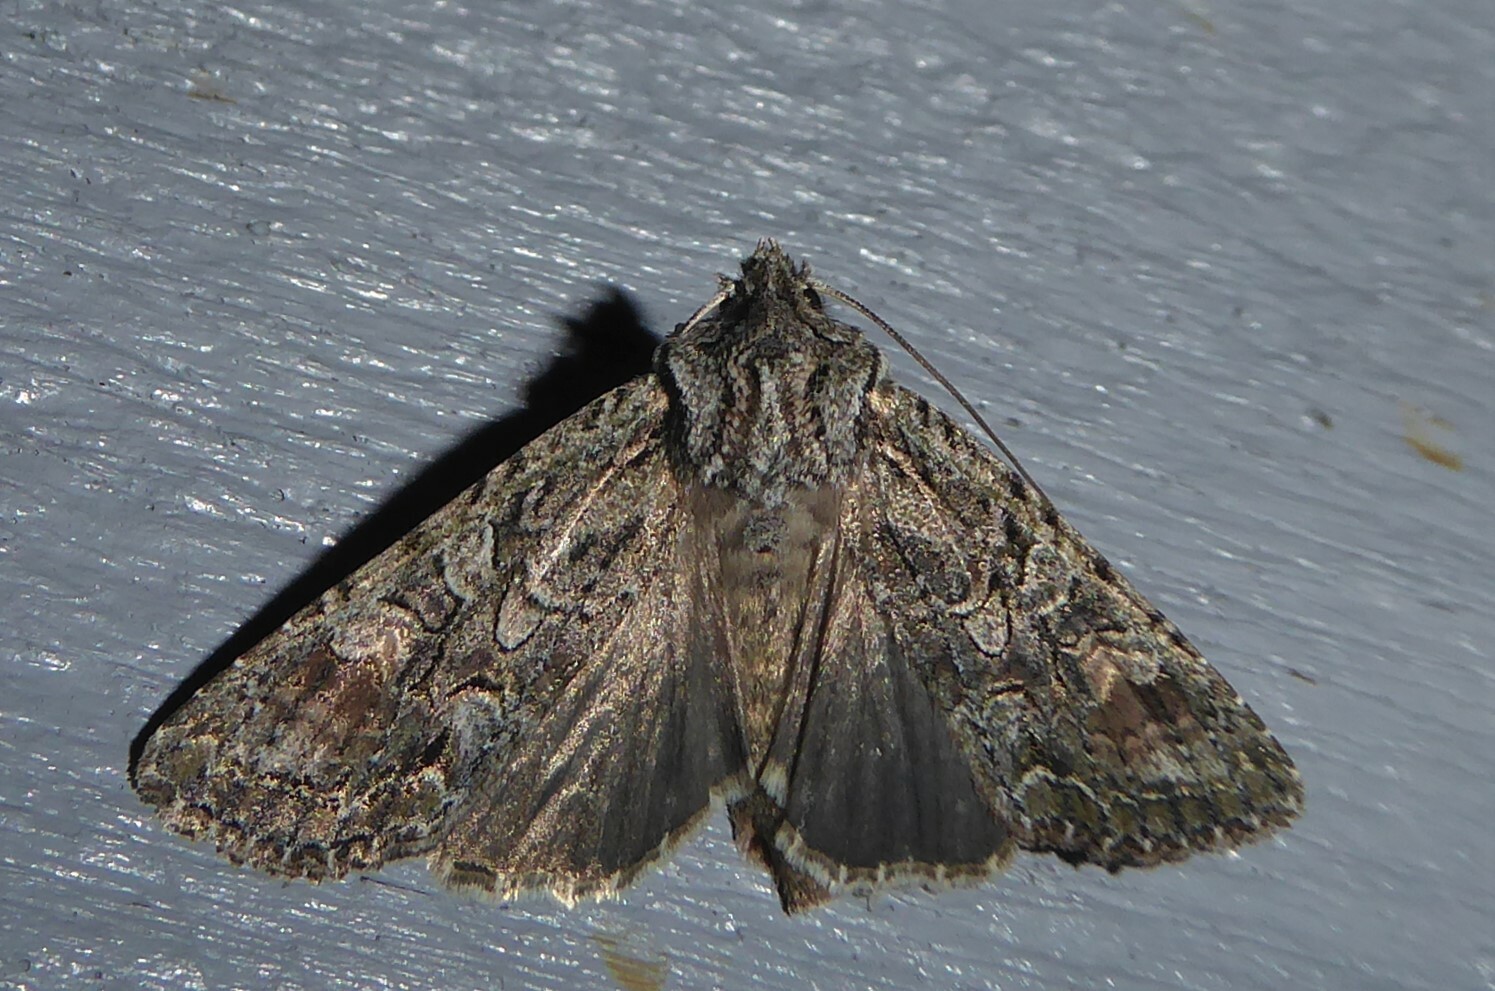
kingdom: Animalia
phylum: Arthropoda
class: Insecta
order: Lepidoptera
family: Noctuidae
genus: Ichneutica
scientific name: Ichneutica mutans
